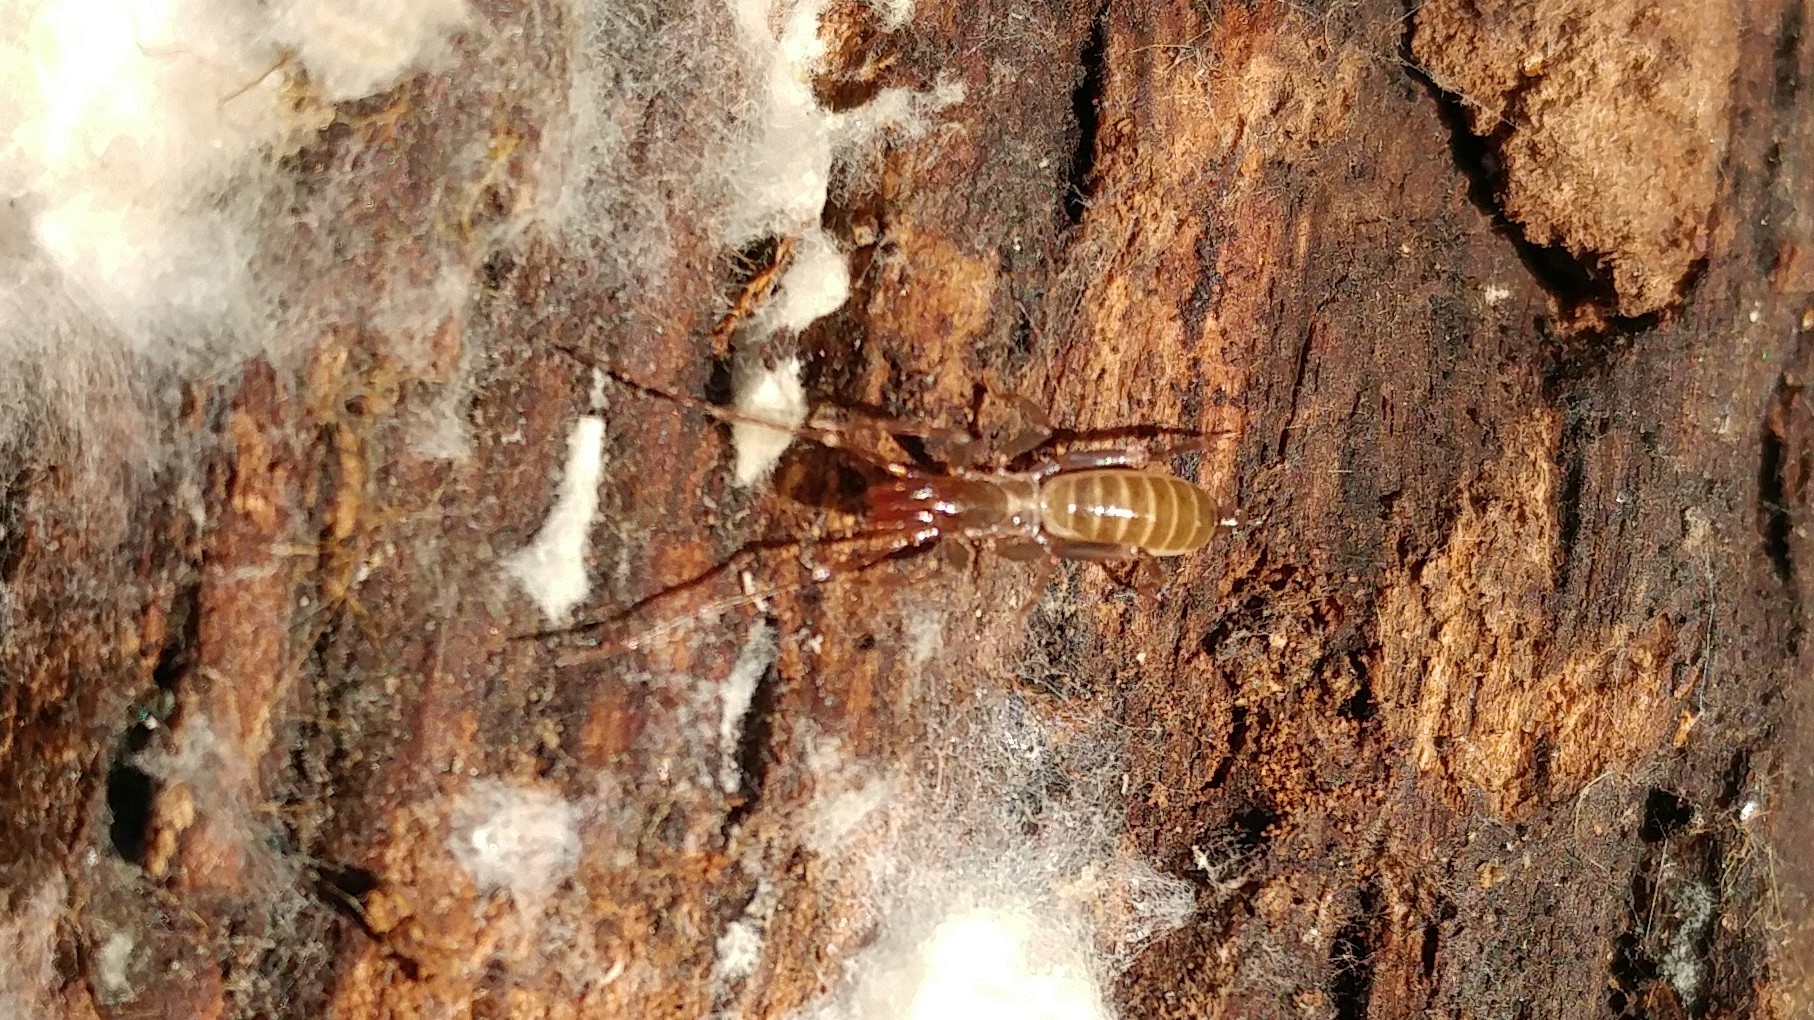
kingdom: Animalia
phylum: Arthropoda
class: Arachnida
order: Schizomida
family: Hubbardiidae
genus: Hubbardia
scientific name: Hubbardia pentapeltis
